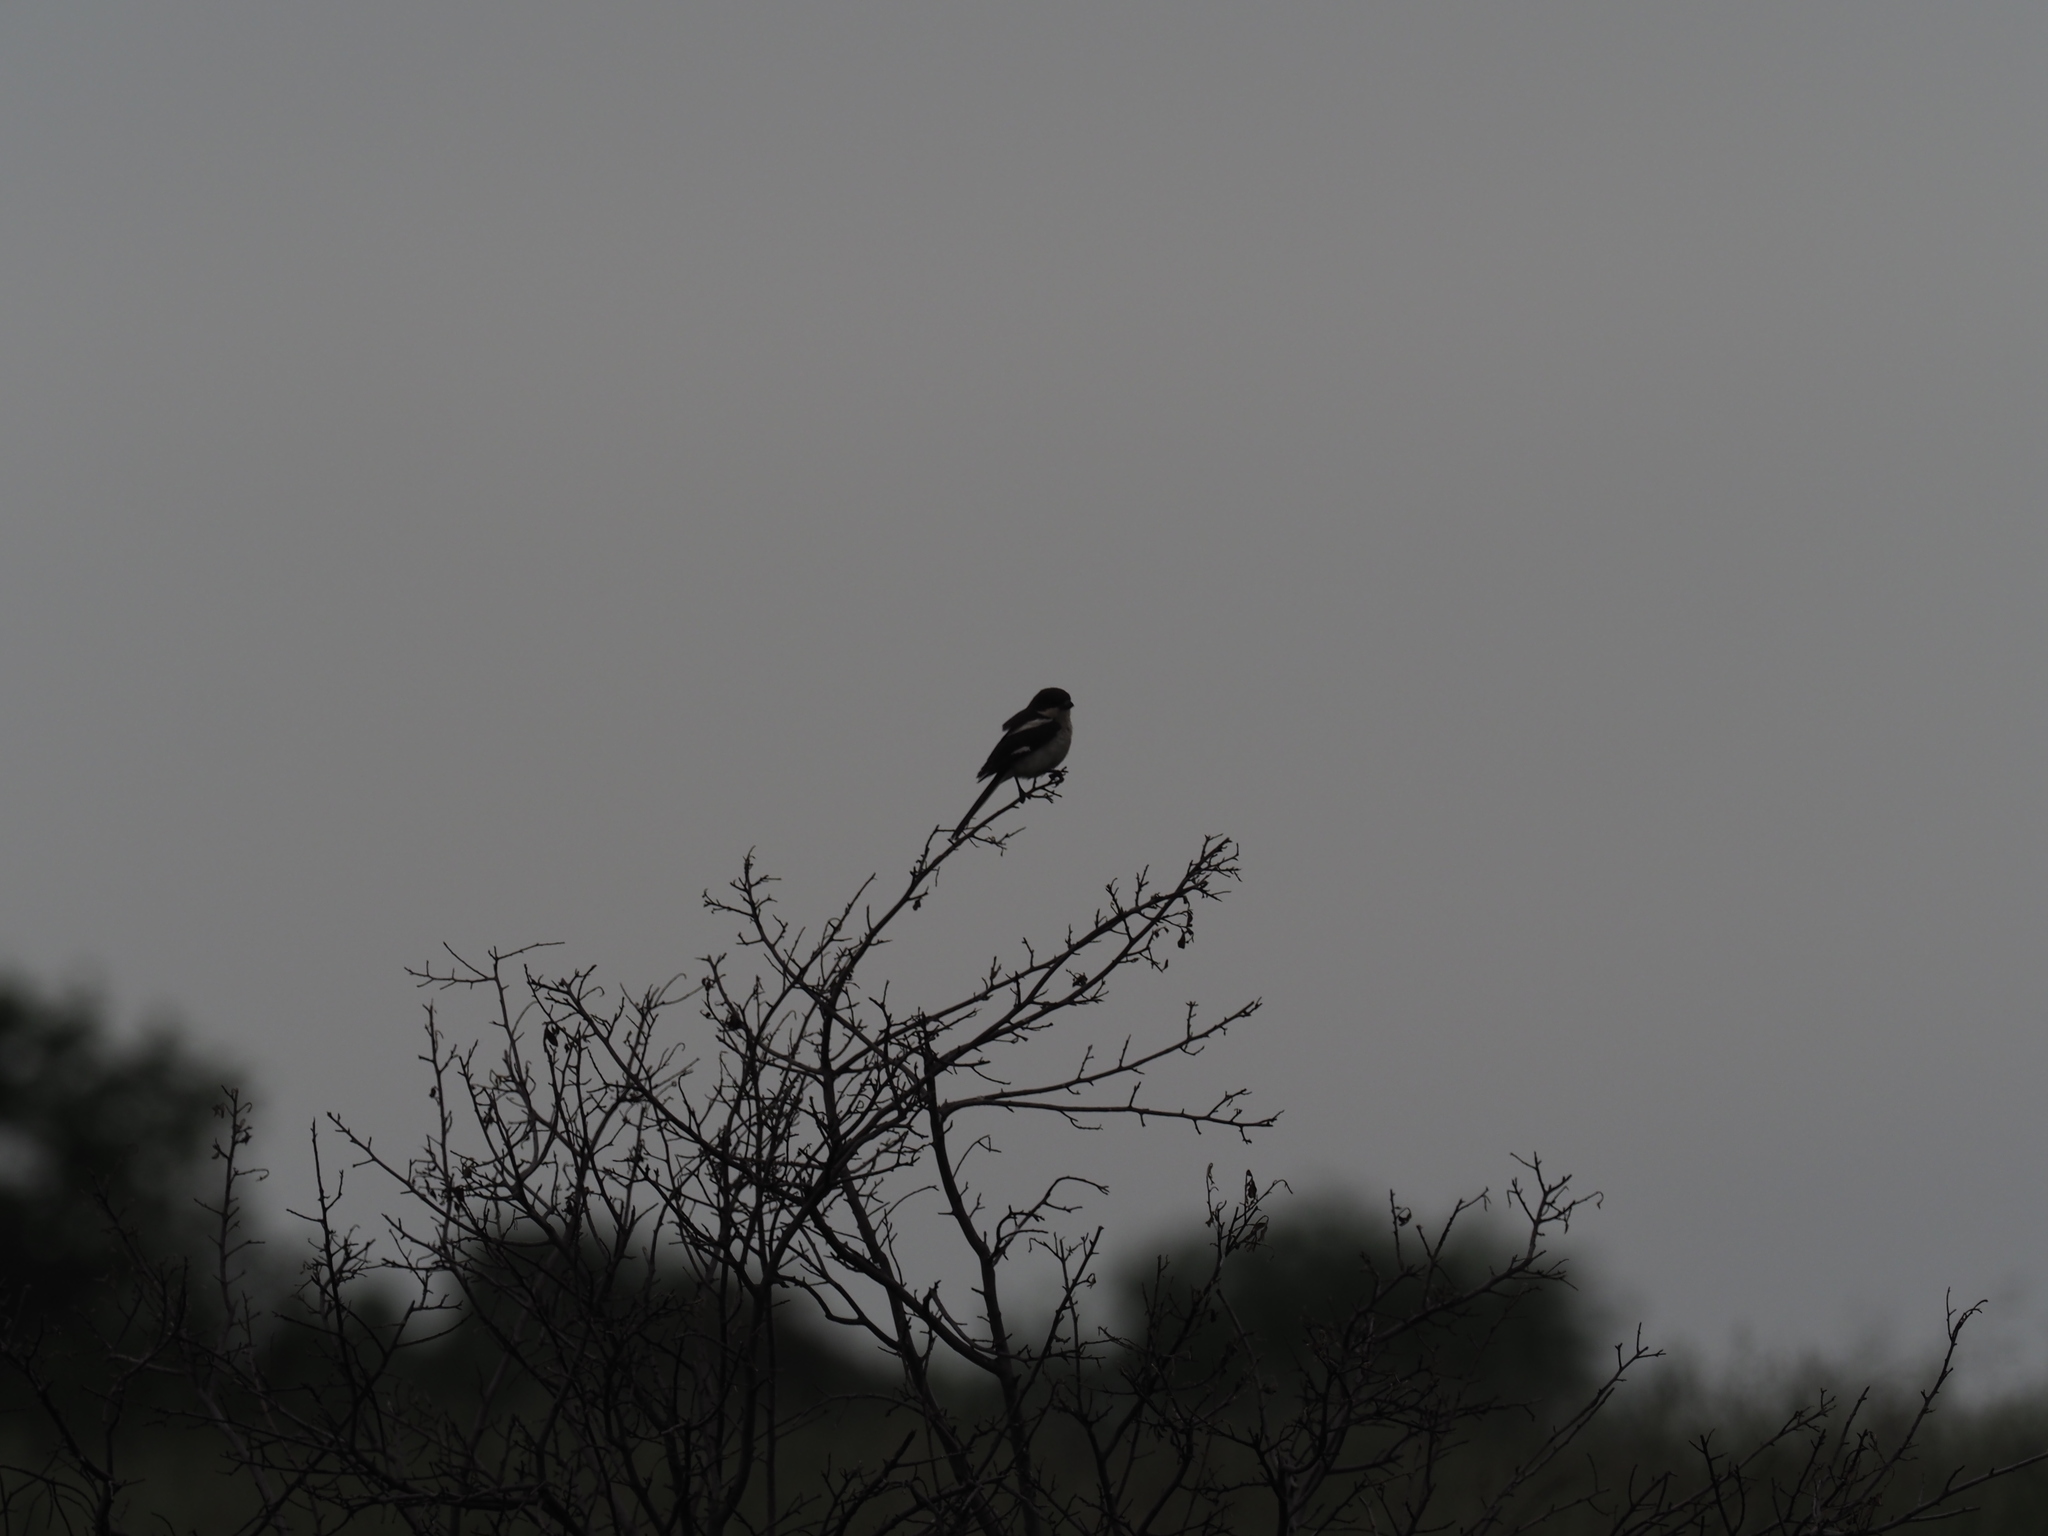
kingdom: Animalia
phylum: Chordata
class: Aves
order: Passeriformes
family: Laniidae
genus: Lanius
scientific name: Lanius collaris
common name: Southern fiscal
